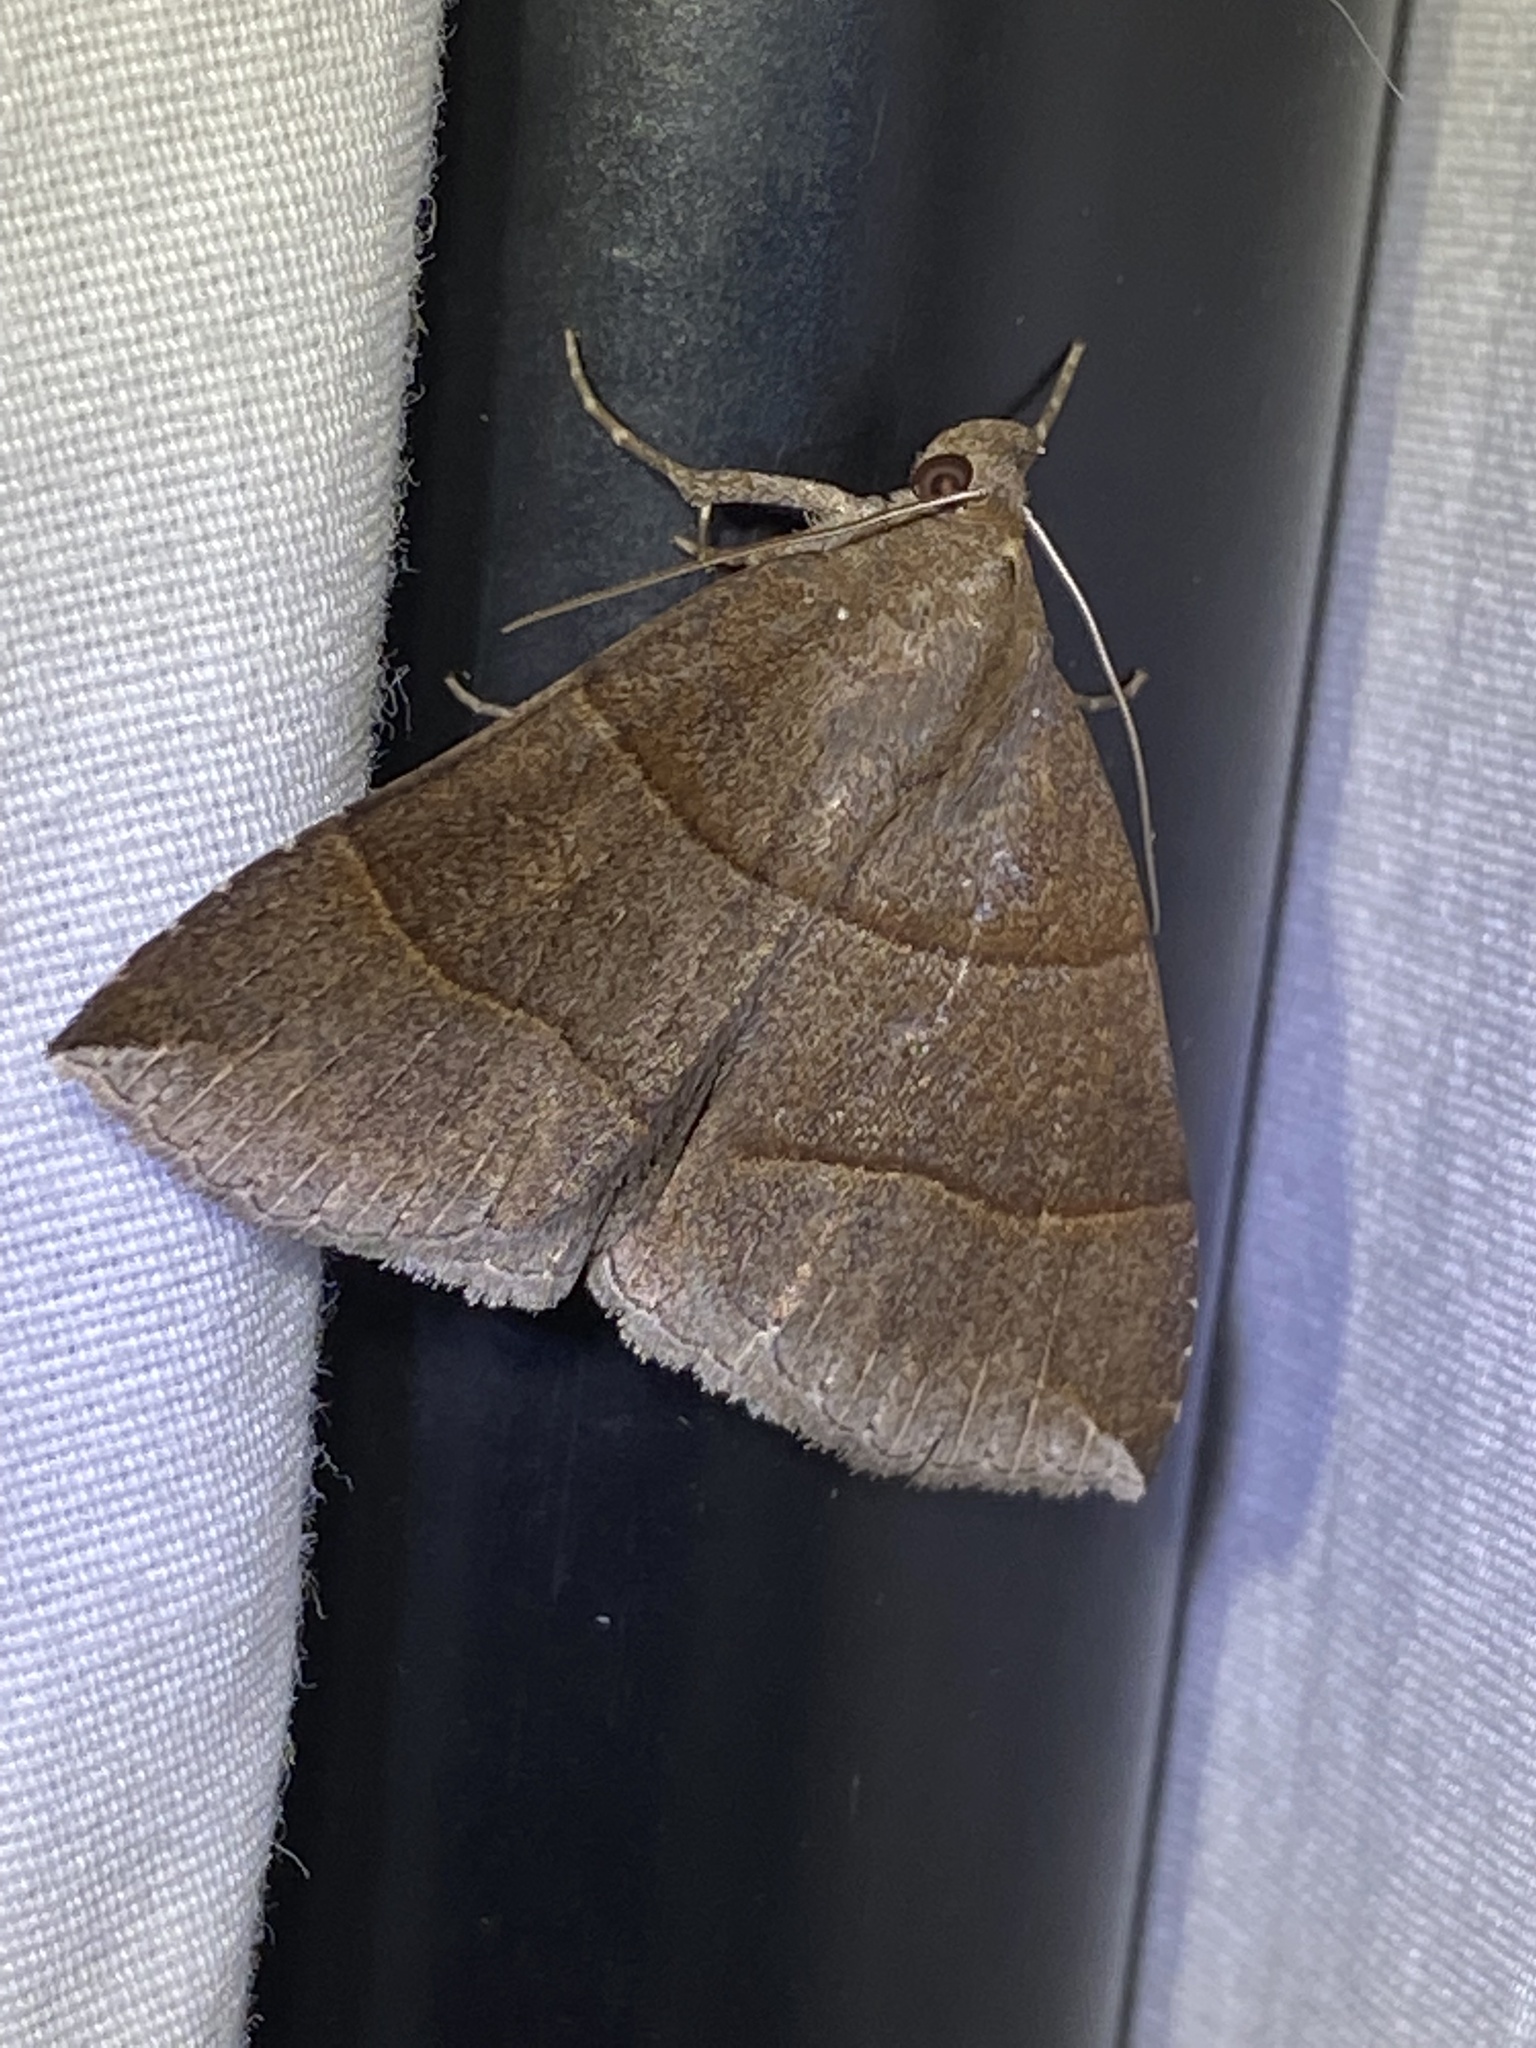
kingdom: Animalia
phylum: Arthropoda
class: Insecta
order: Lepidoptera
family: Erebidae
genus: Parallelia
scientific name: Parallelia bistriaris
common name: Maple looper moth
